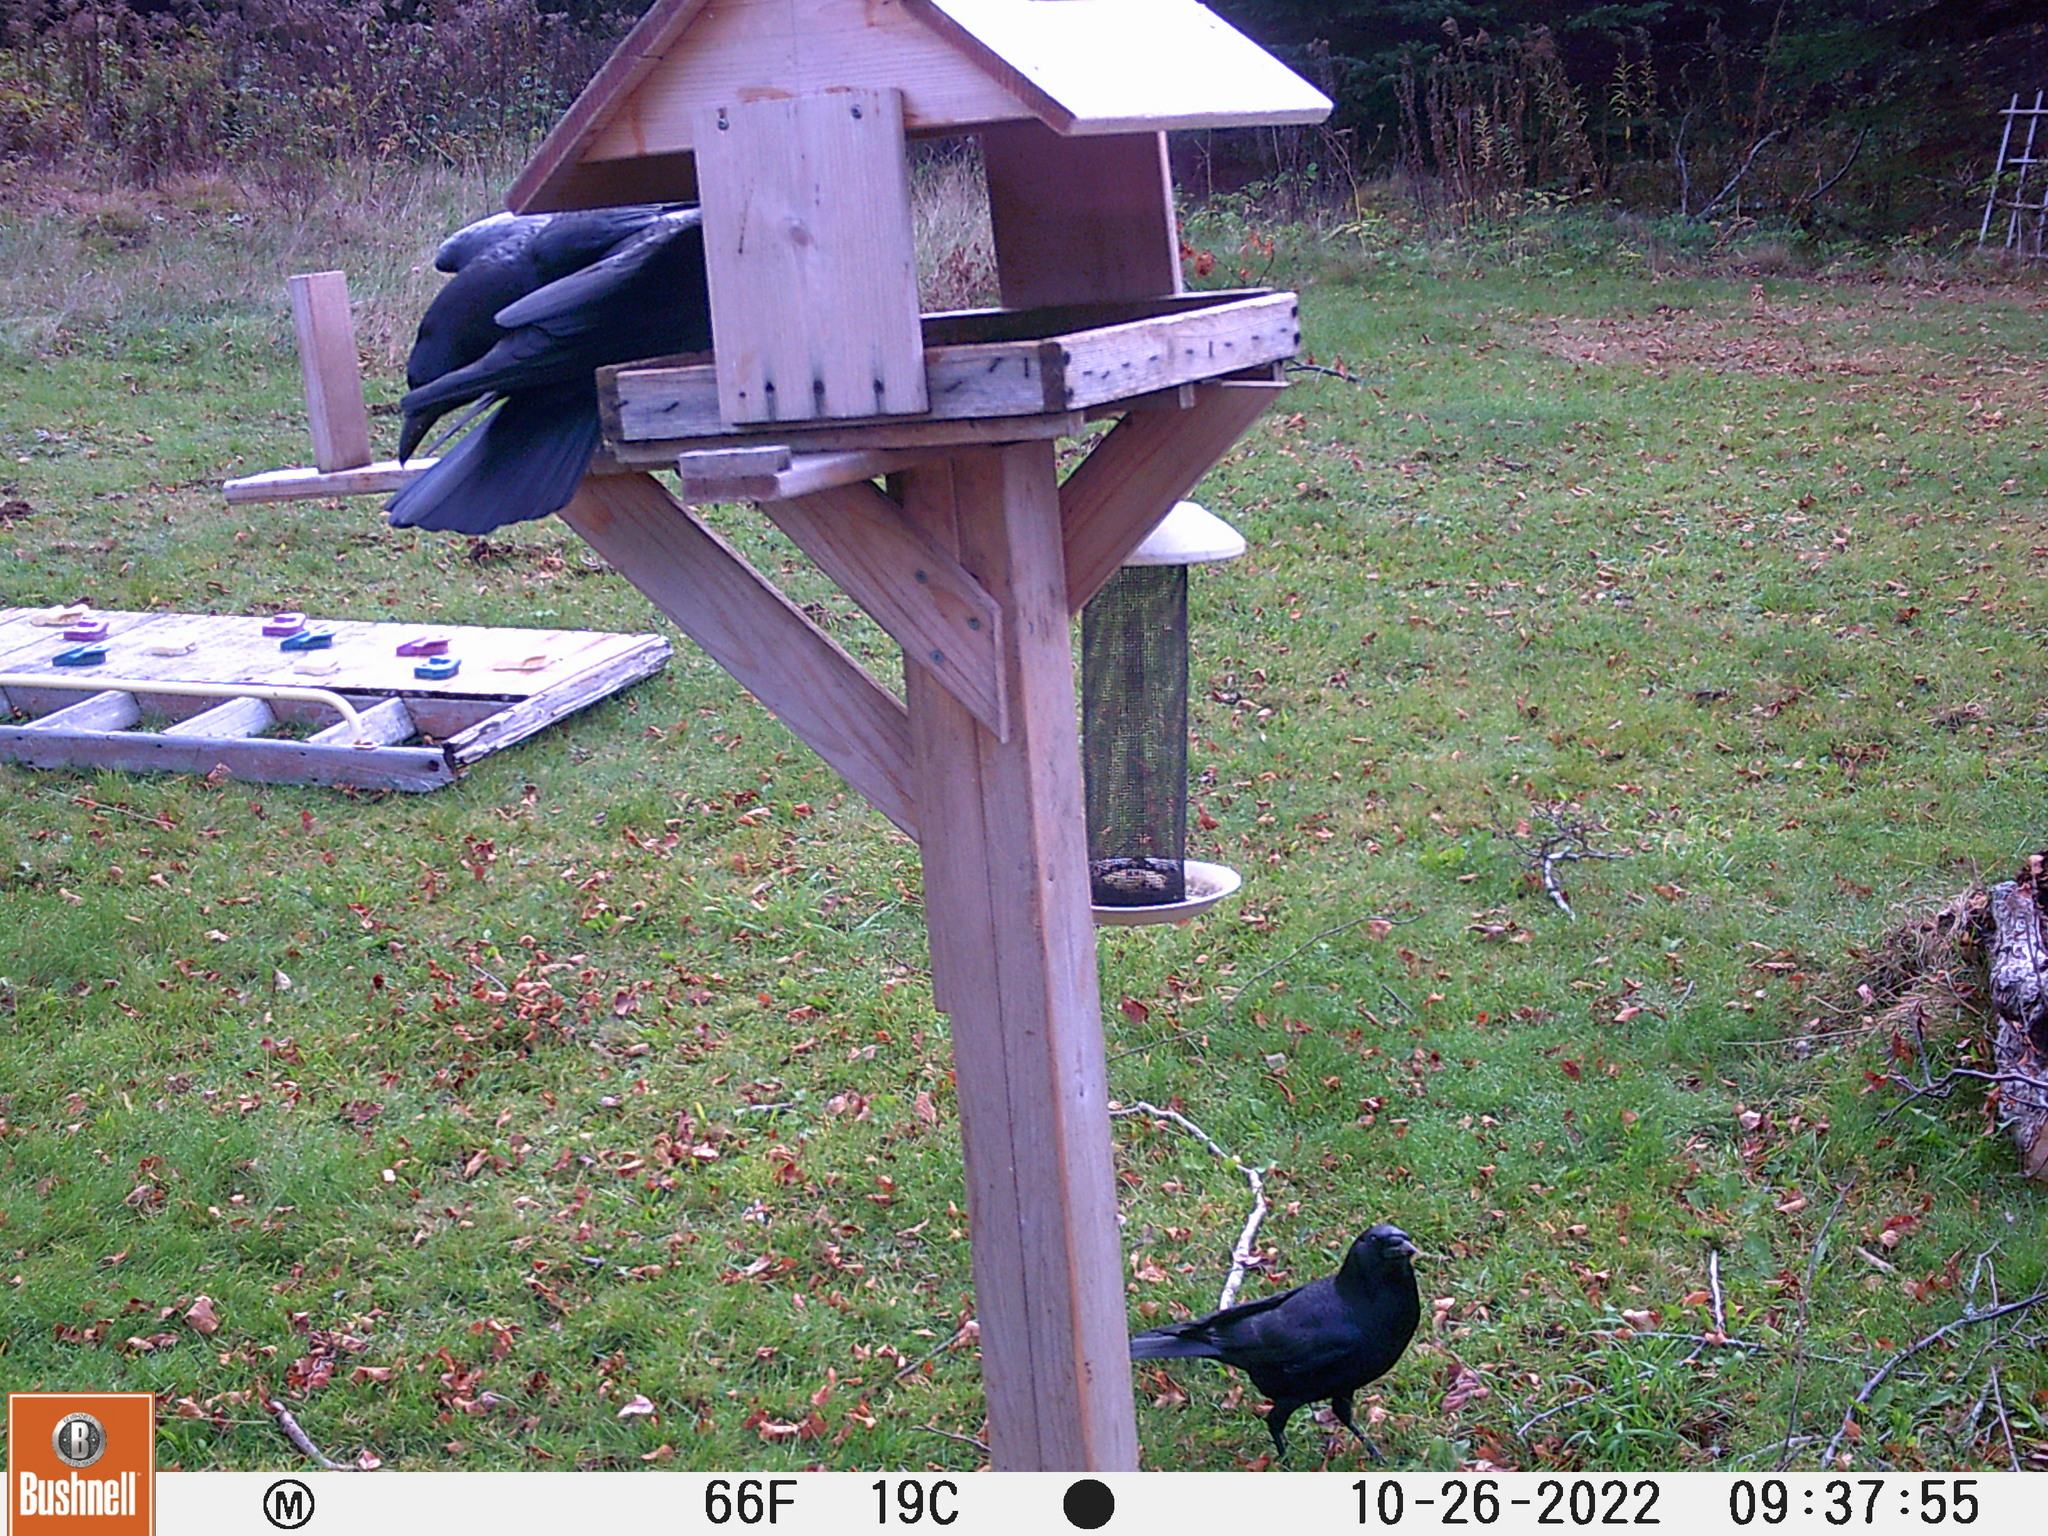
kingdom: Animalia
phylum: Chordata
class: Aves
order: Passeriformes
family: Corvidae
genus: Corvus
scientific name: Corvus brachyrhynchos
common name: American crow
